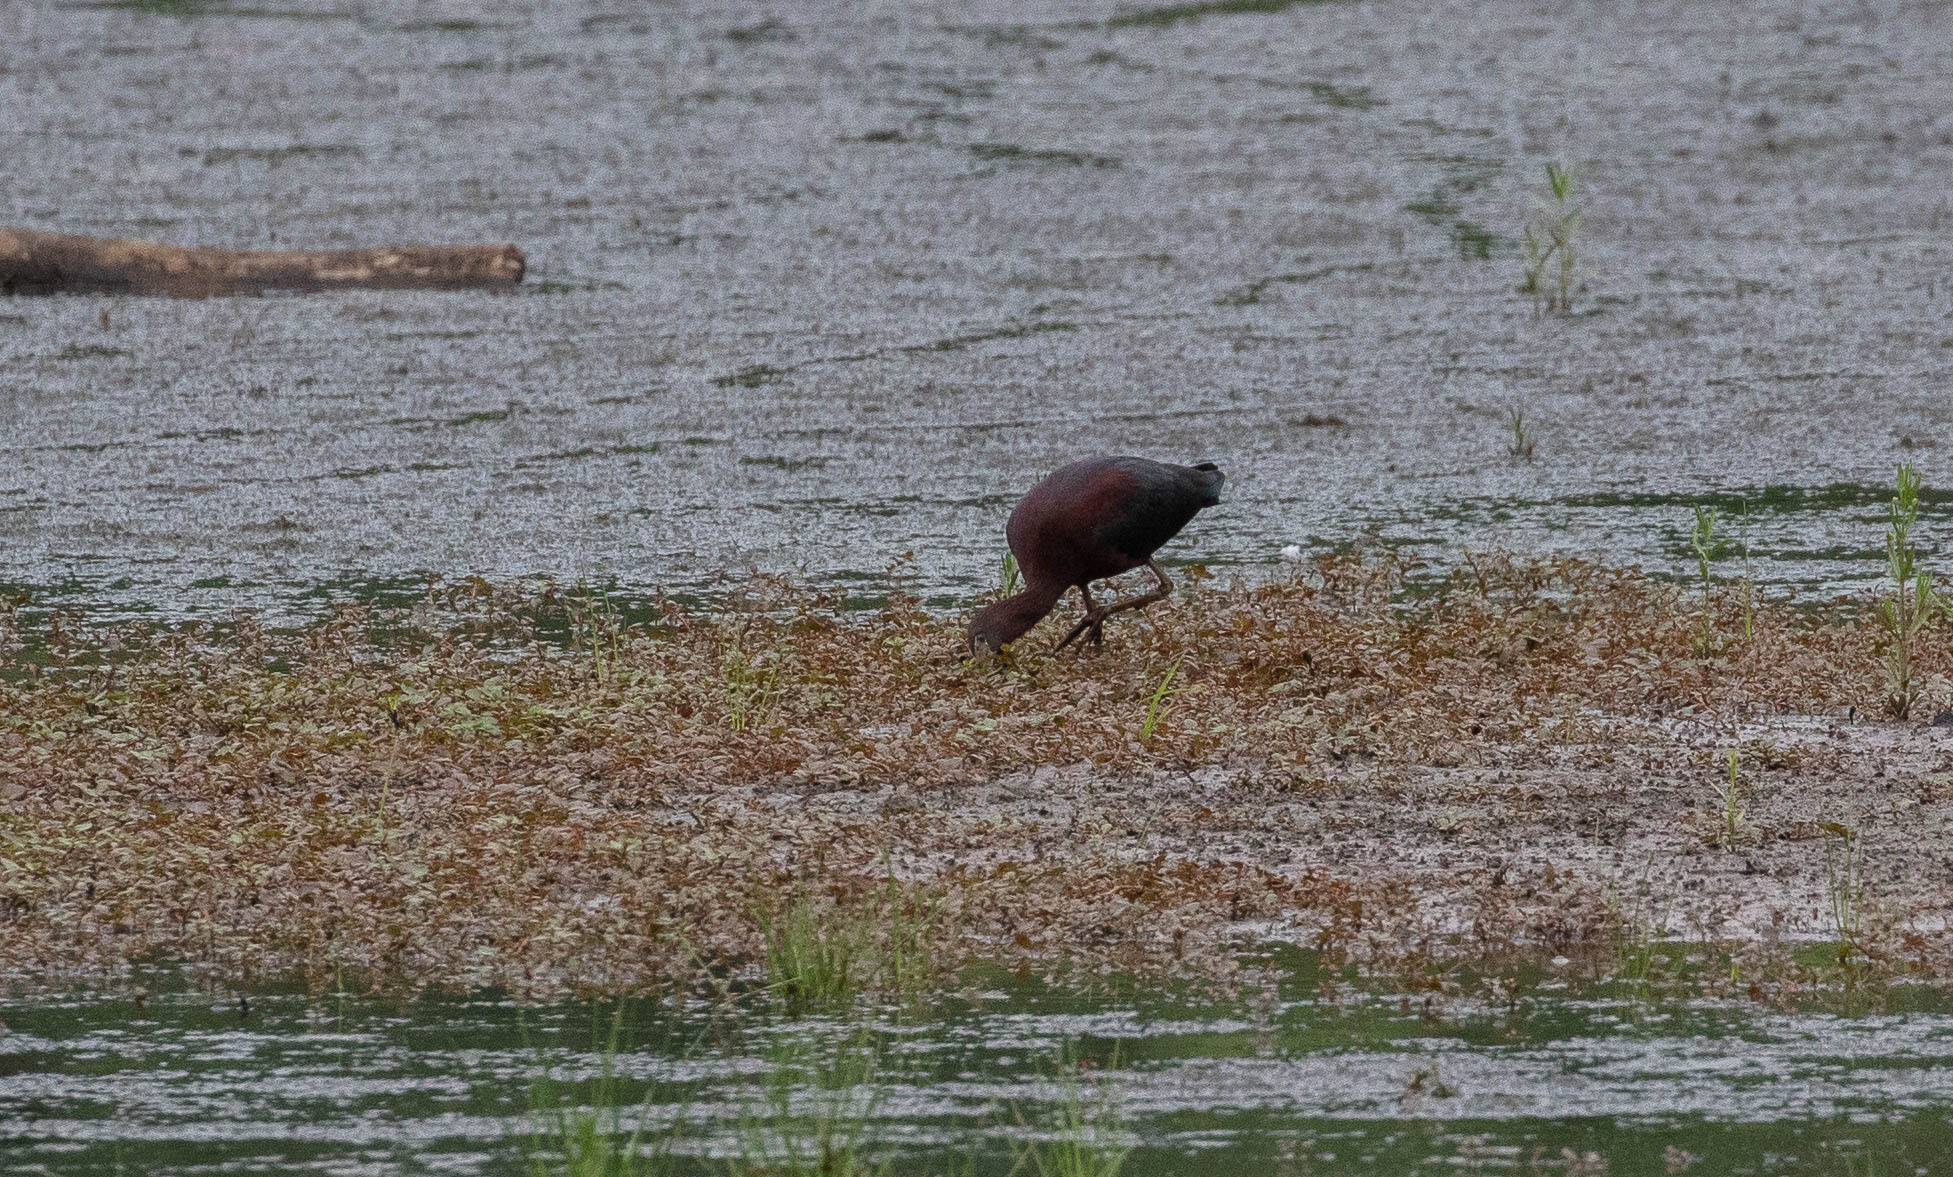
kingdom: Animalia
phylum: Chordata
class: Aves
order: Pelecaniformes
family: Threskiornithidae
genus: Plegadis
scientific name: Plegadis falcinellus
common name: Glossy ibis
